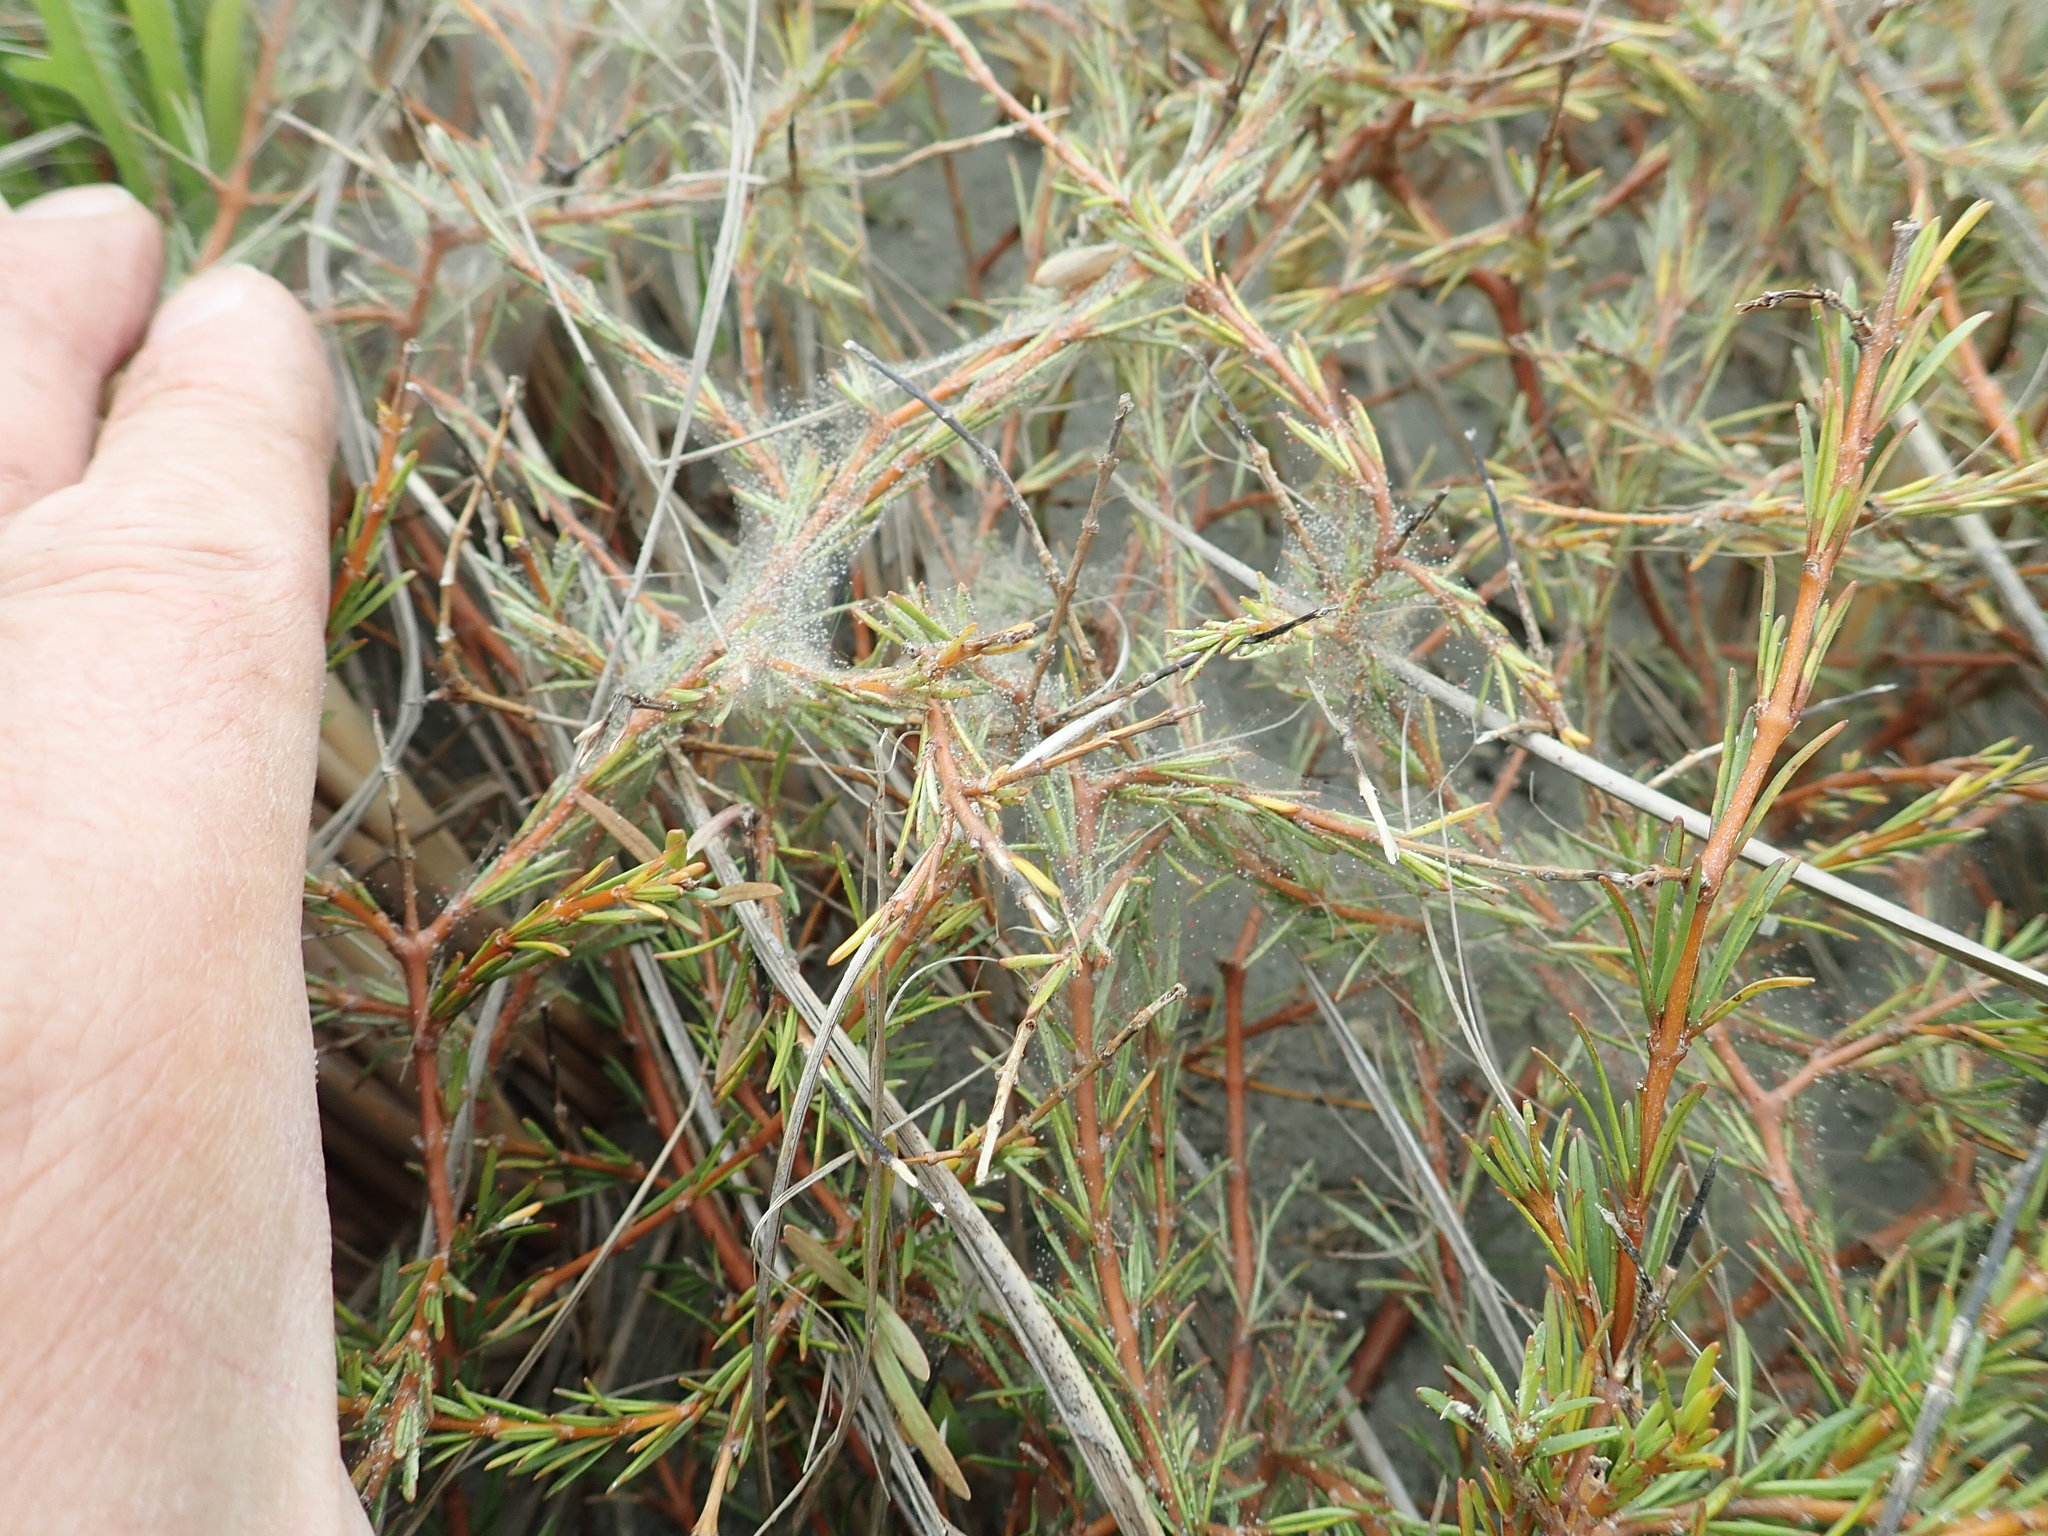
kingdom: Animalia
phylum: Arthropoda
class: Arachnida
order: Trombidiformes
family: Tetranychidae
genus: Tetranychus
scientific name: Tetranychus lintearius
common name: Gorse spider mite
